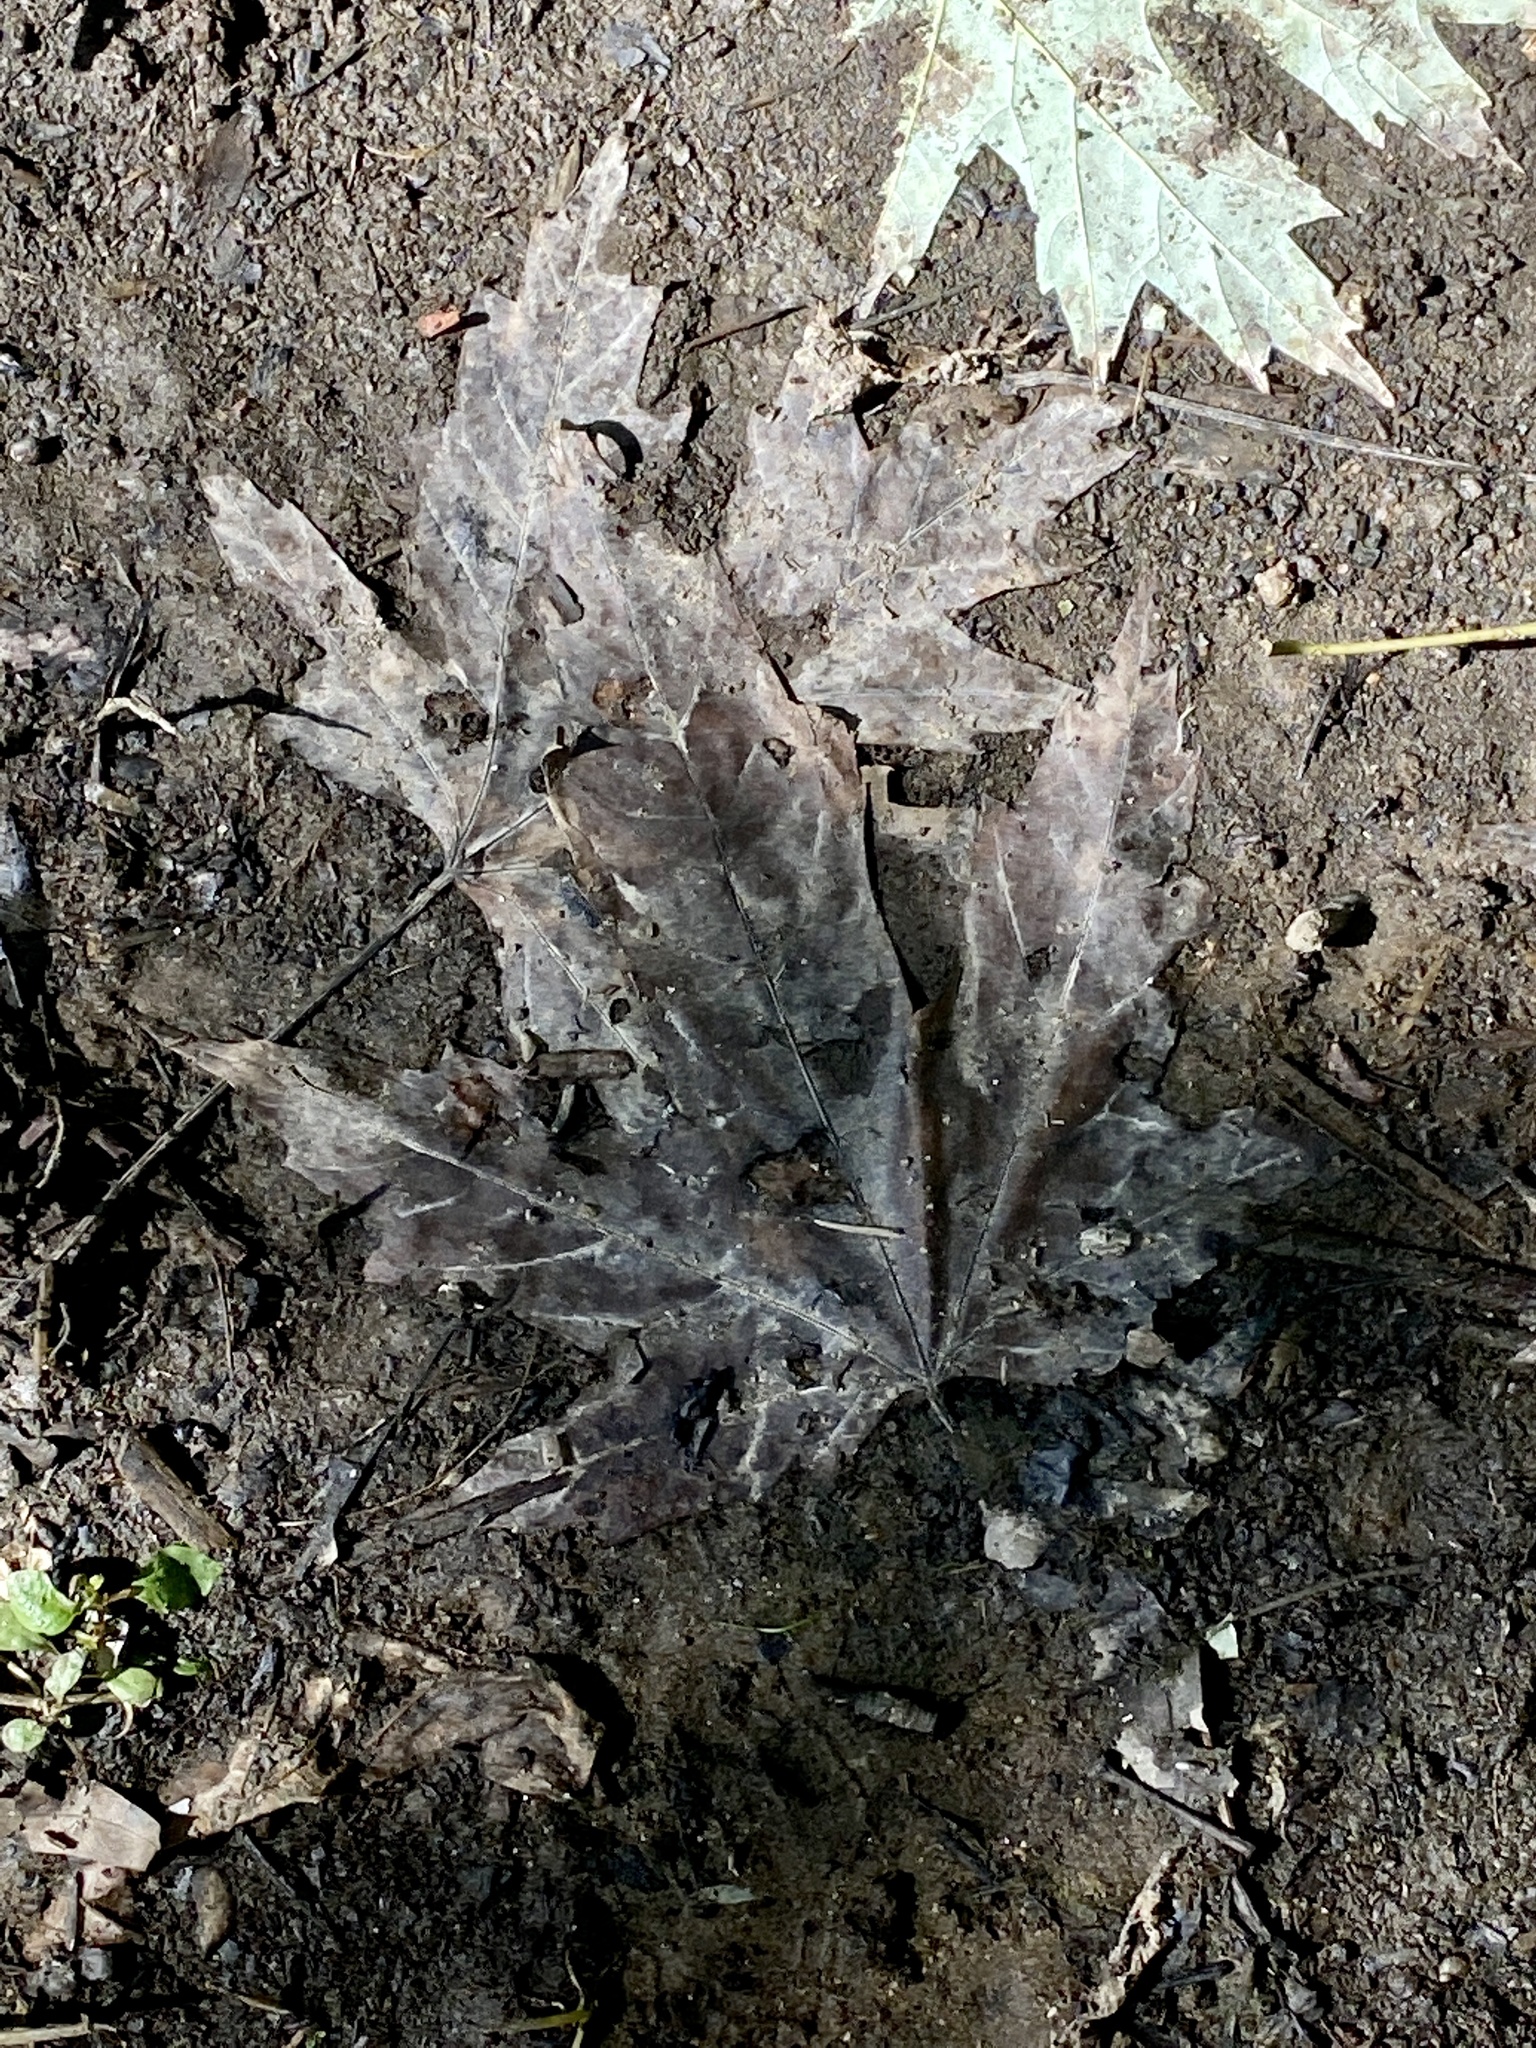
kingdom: Plantae
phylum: Tracheophyta
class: Magnoliopsida
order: Sapindales
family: Sapindaceae
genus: Acer
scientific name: Acer saccharinum
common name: Silver maple
